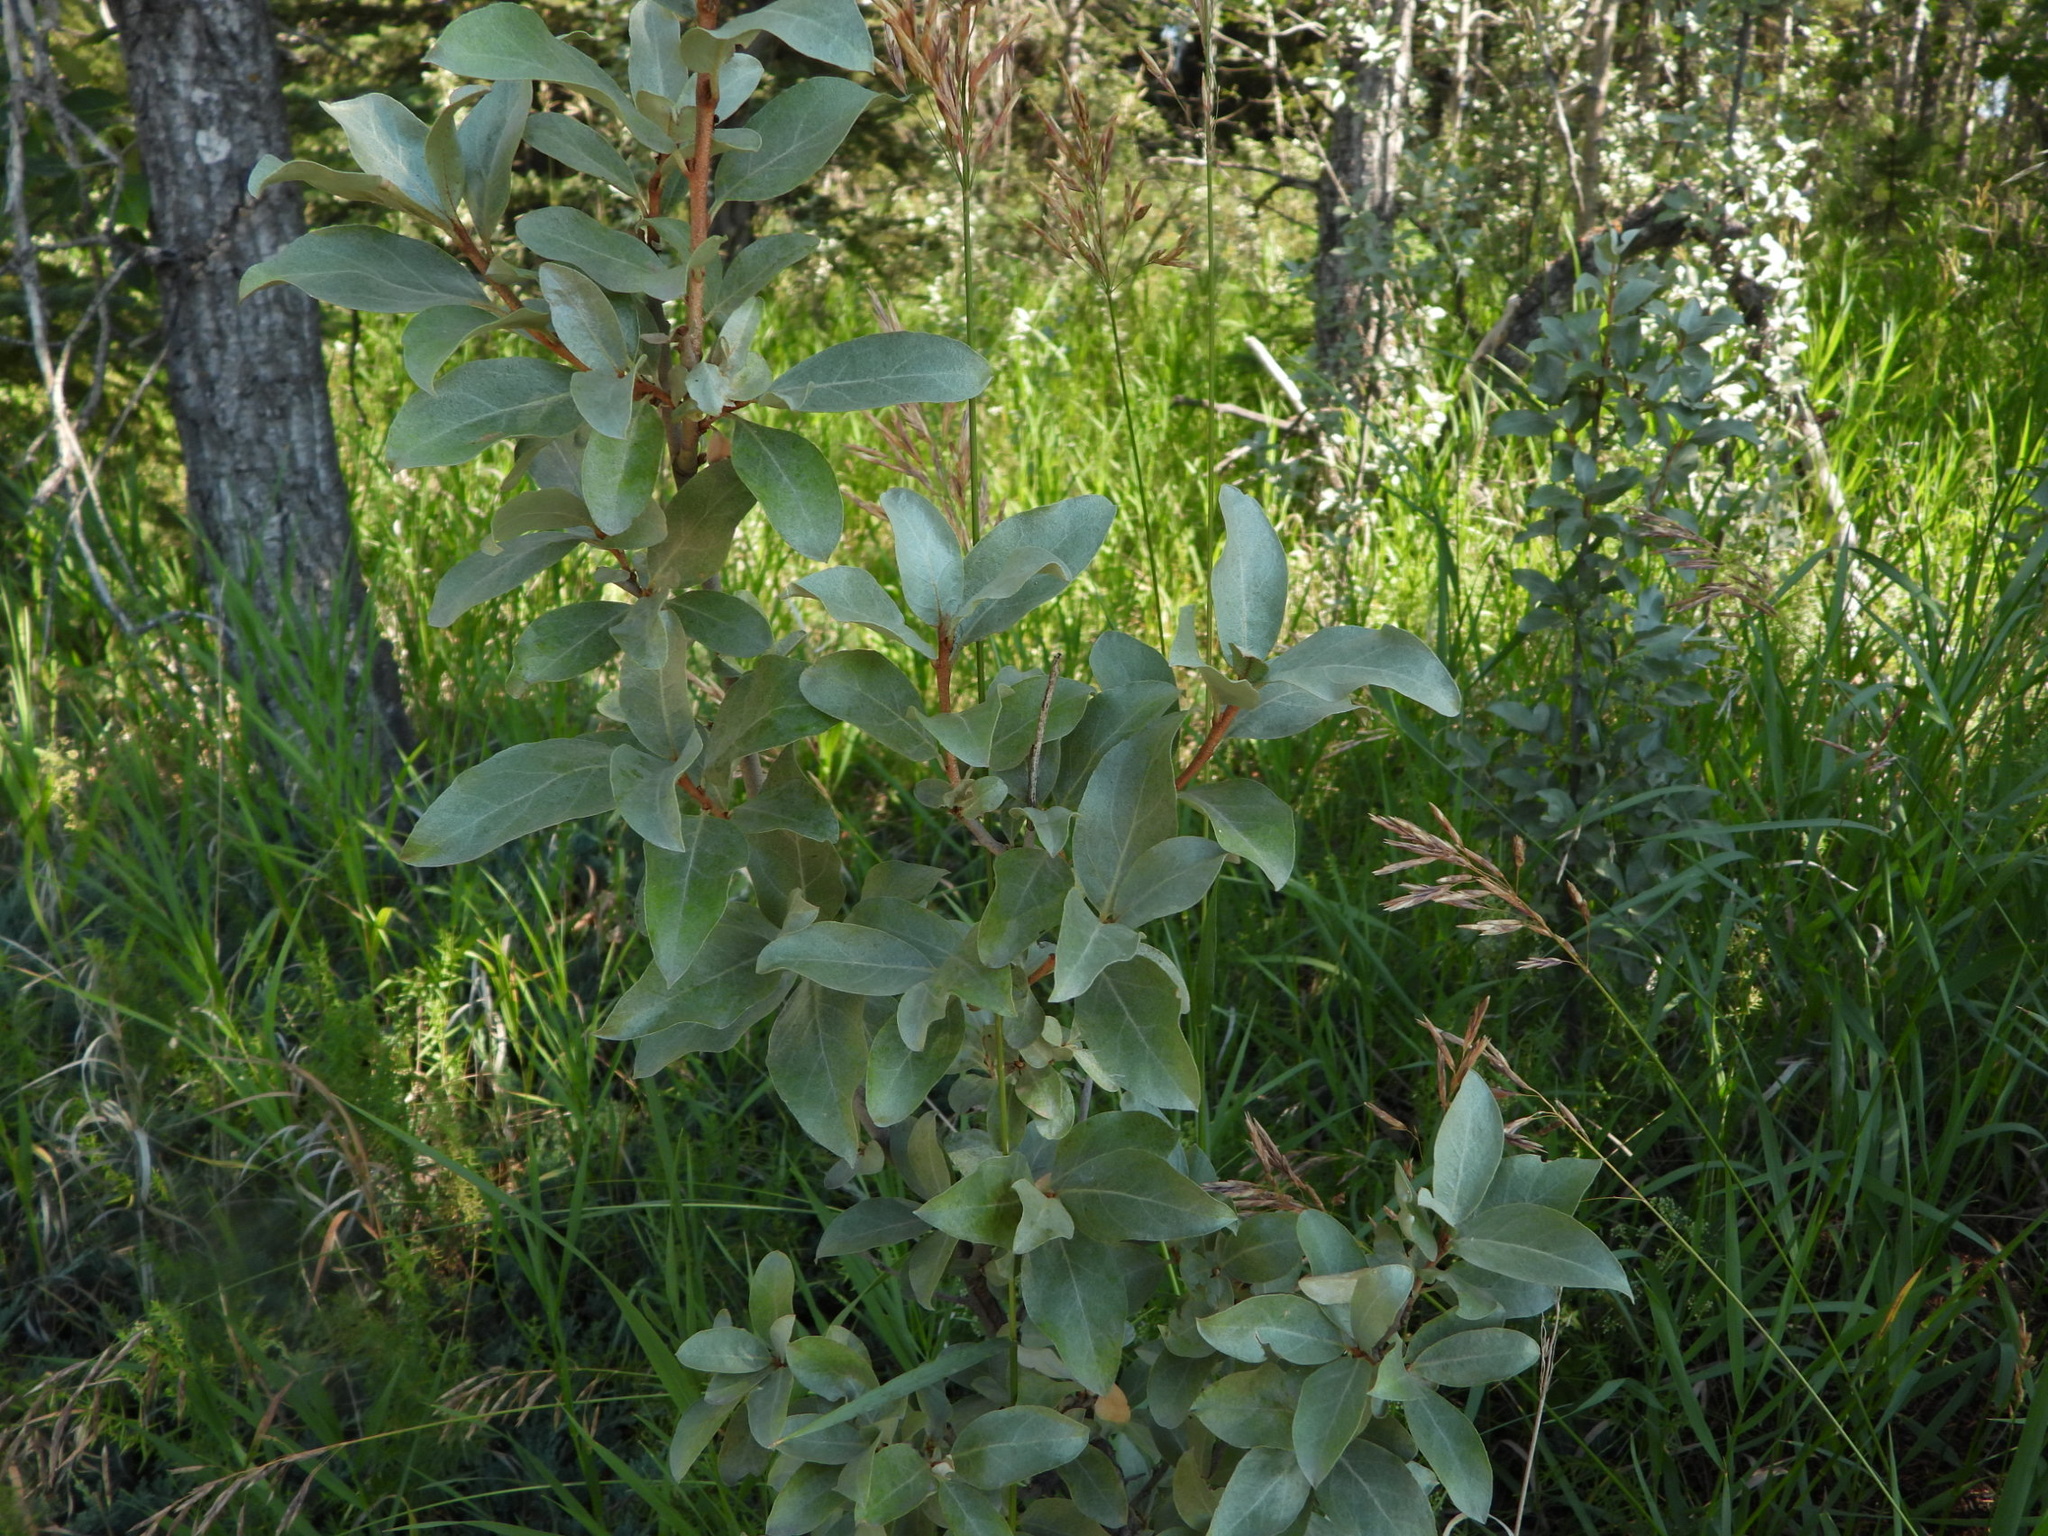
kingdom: Plantae
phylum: Tracheophyta
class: Magnoliopsida
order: Rosales
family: Elaeagnaceae
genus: Elaeagnus
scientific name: Elaeagnus commutata
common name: Silverberry
